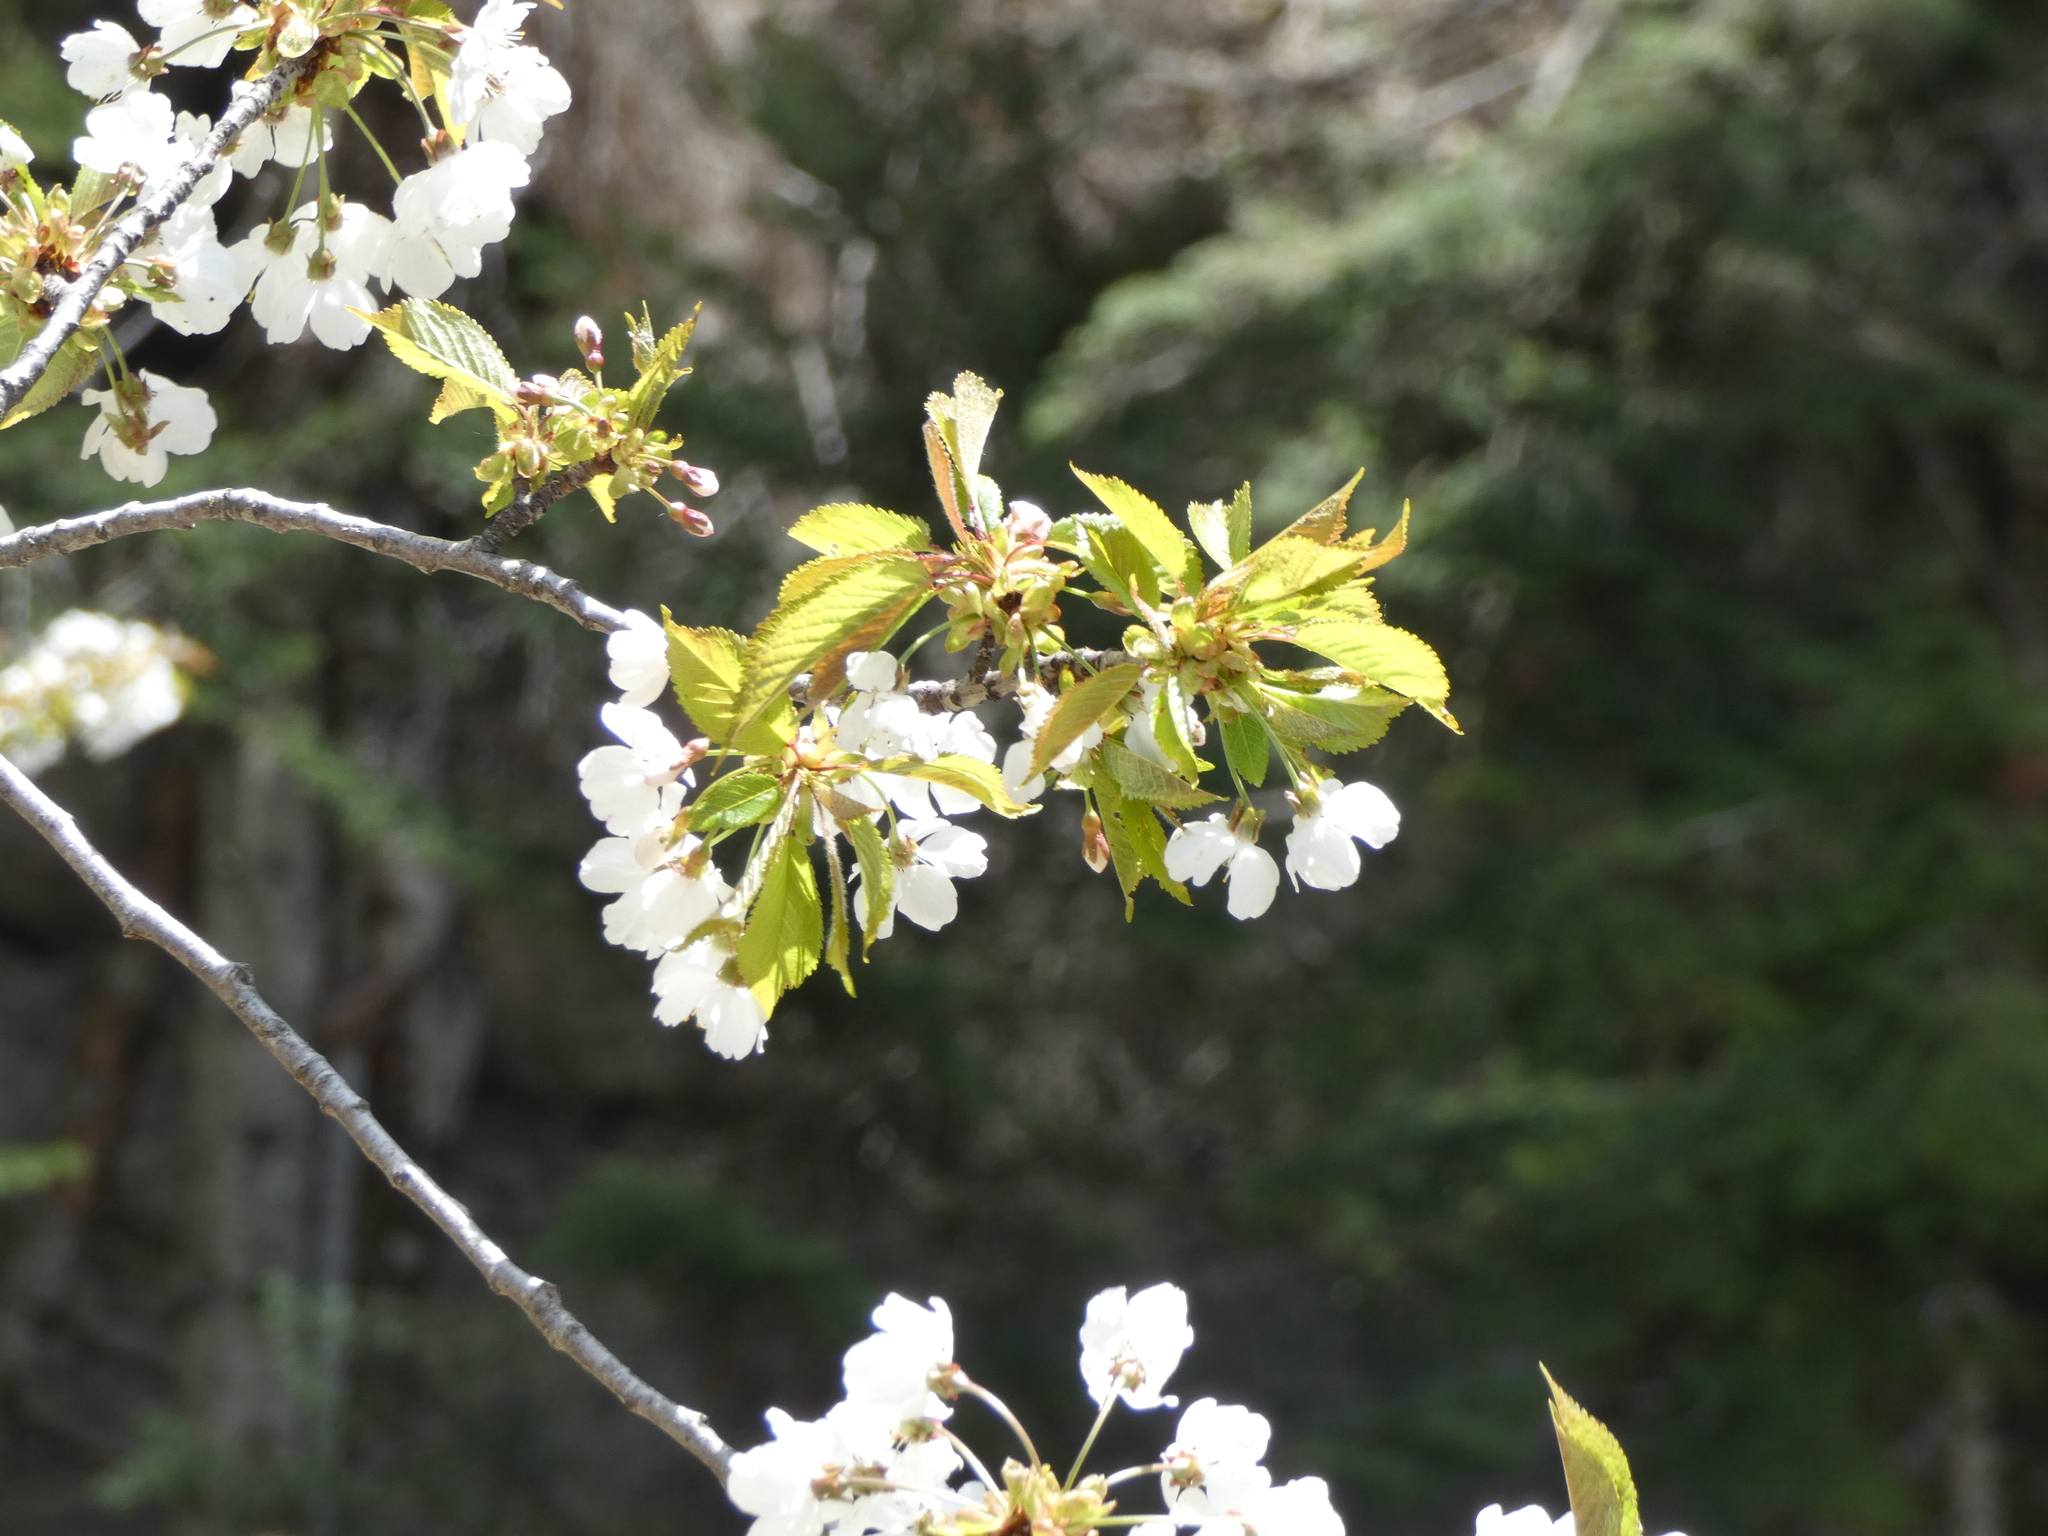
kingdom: Plantae
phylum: Tracheophyta
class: Magnoliopsida
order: Rosales
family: Rosaceae
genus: Prunus
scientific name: Prunus avium
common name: Sweet cherry
